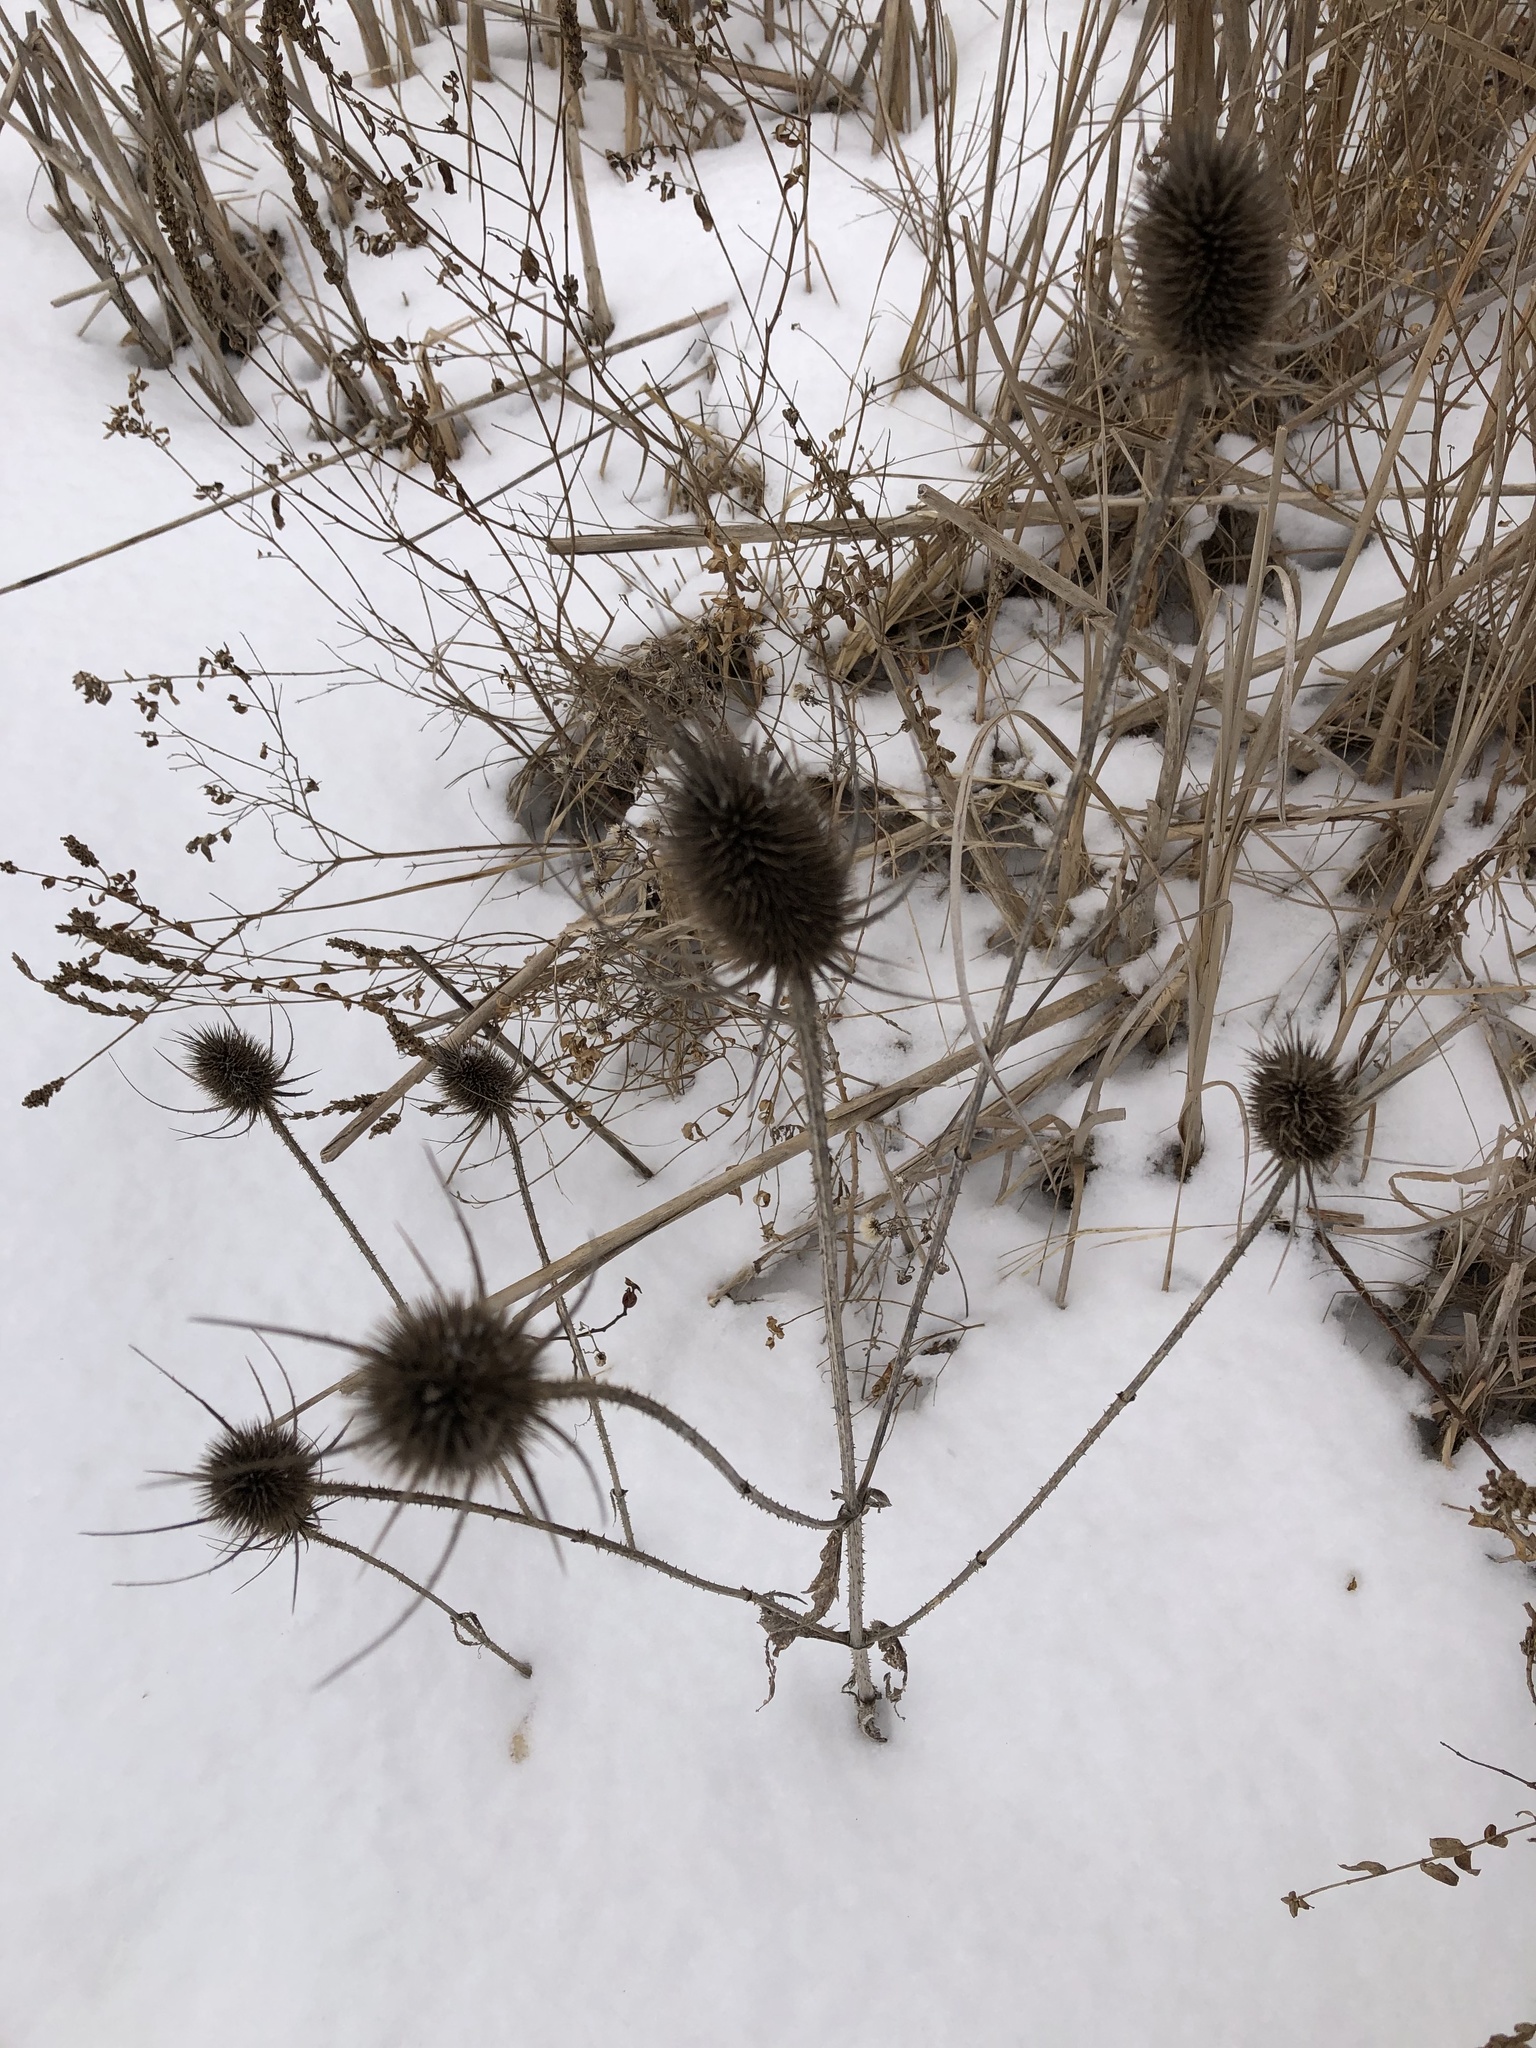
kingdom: Plantae
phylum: Tracheophyta
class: Magnoliopsida
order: Dipsacales
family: Caprifoliaceae
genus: Dipsacus
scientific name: Dipsacus fullonum
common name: Teasel
